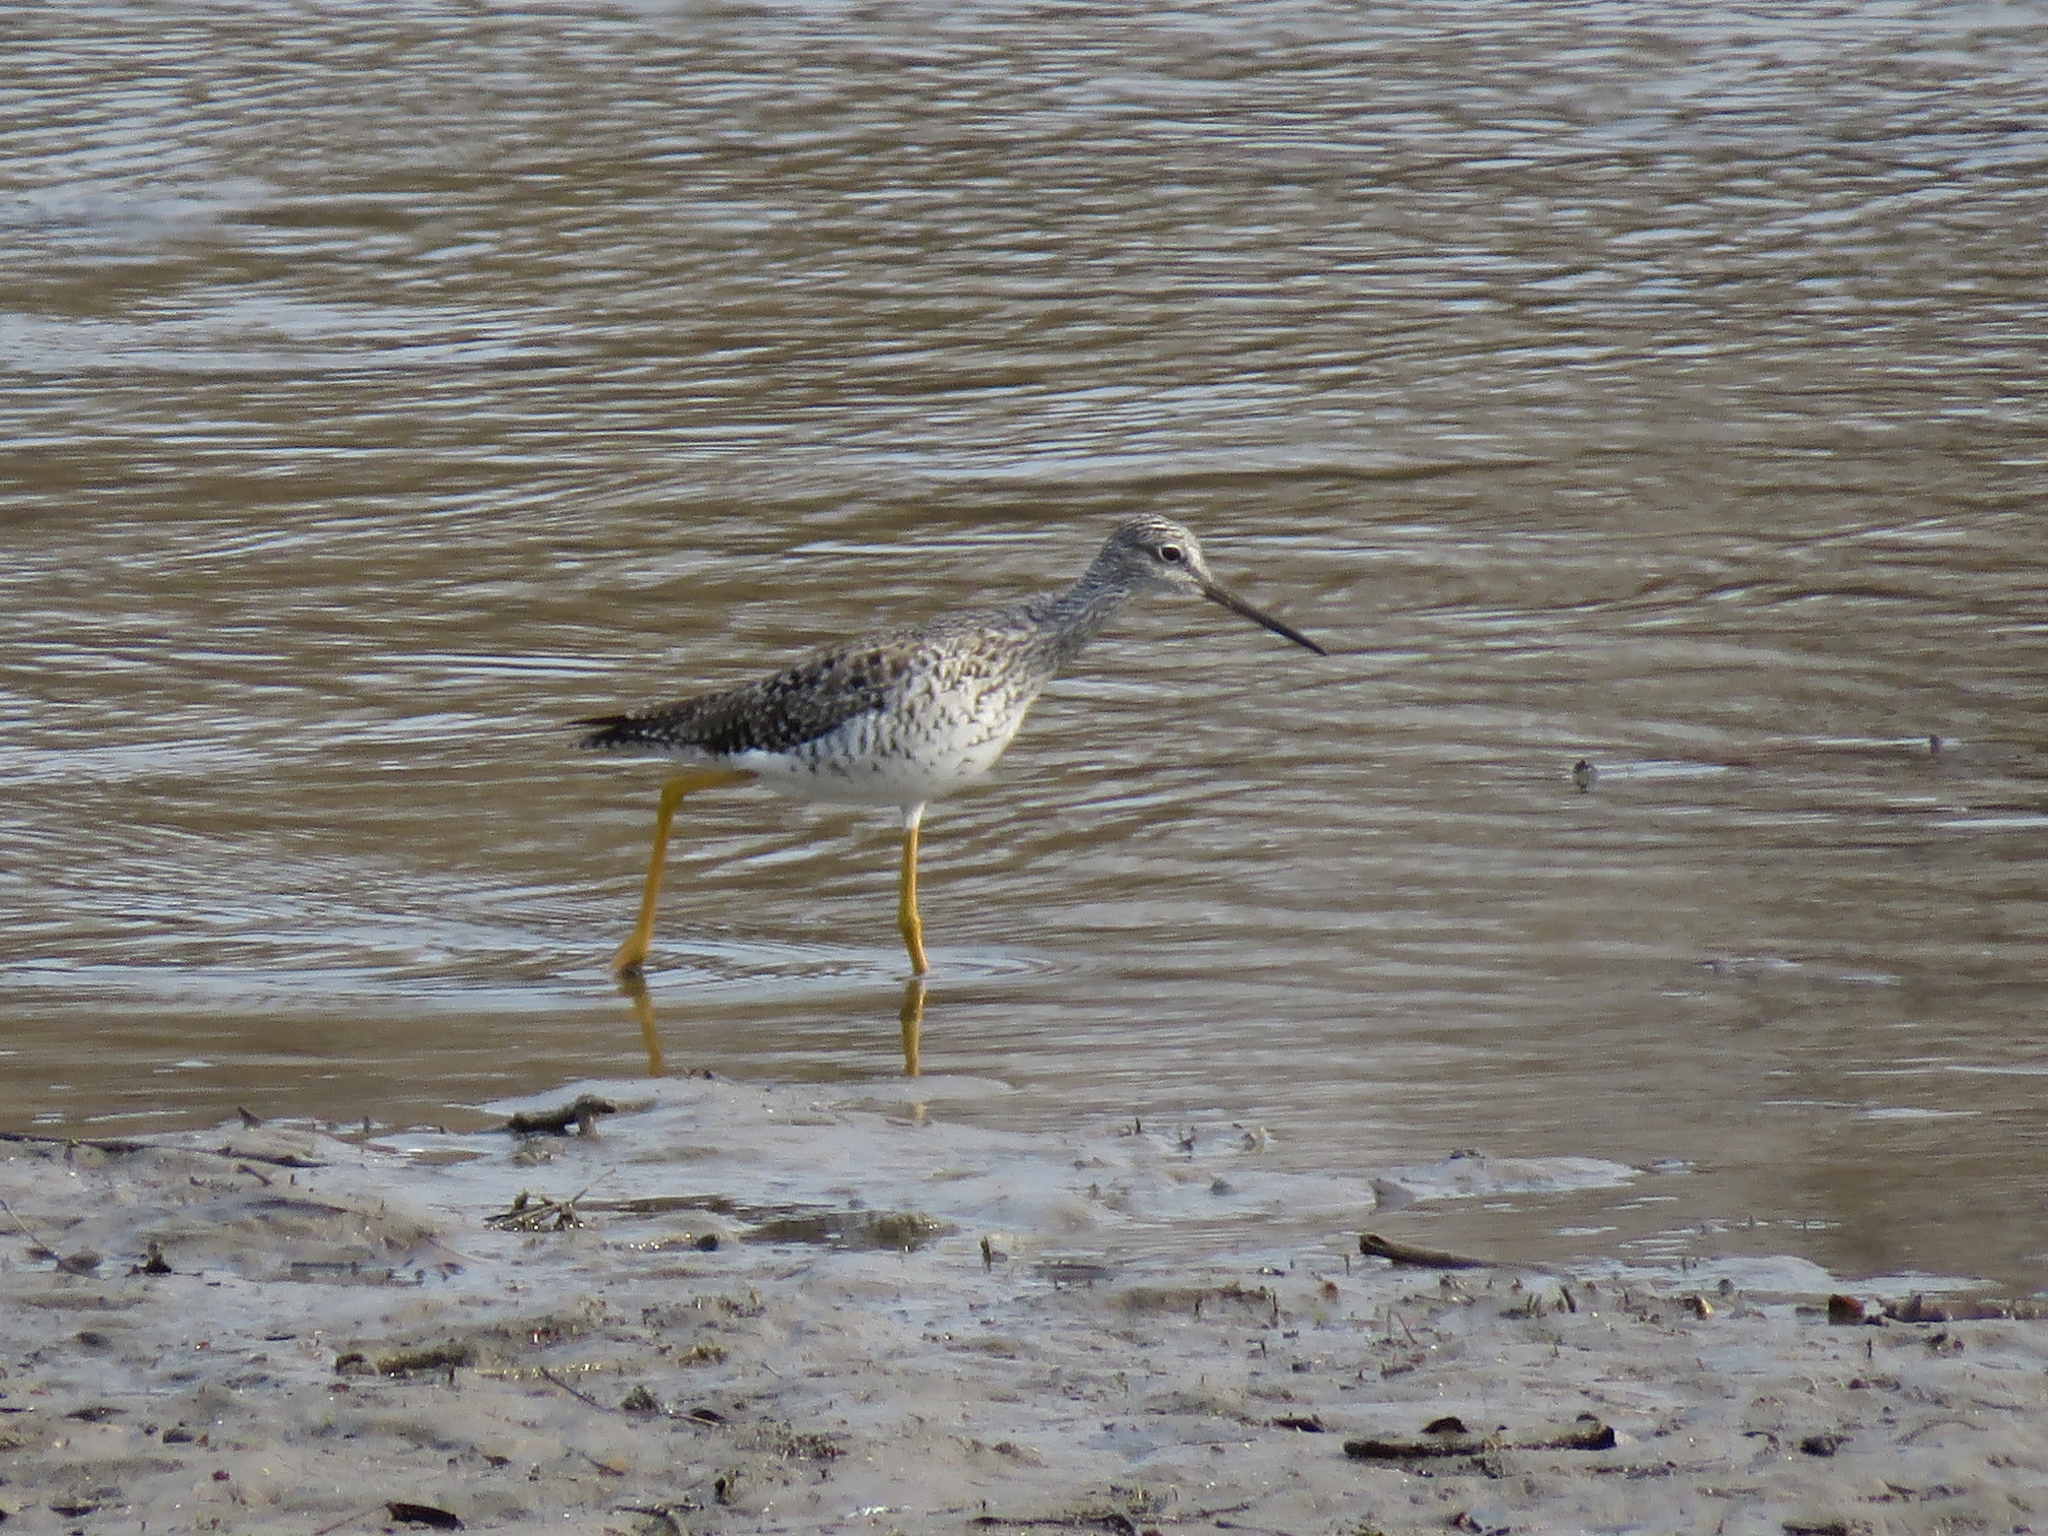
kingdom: Animalia
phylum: Chordata
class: Aves
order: Charadriiformes
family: Scolopacidae
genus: Tringa
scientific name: Tringa melanoleuca
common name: Greater yellowlegs
